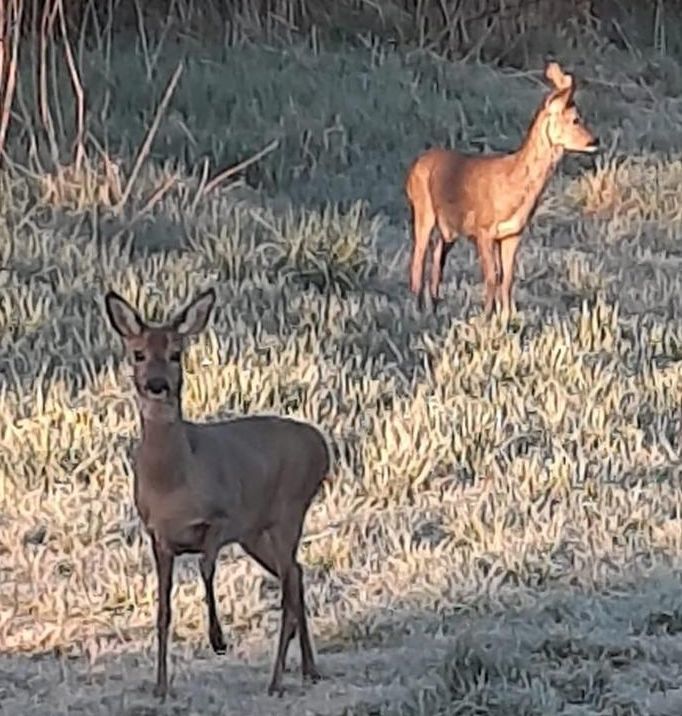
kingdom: Animalia
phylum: Chordata
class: Mammalia
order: Artiodactyla
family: Cervidae
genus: Capreolus
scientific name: Capreolus capreolus
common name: Western roe deer
